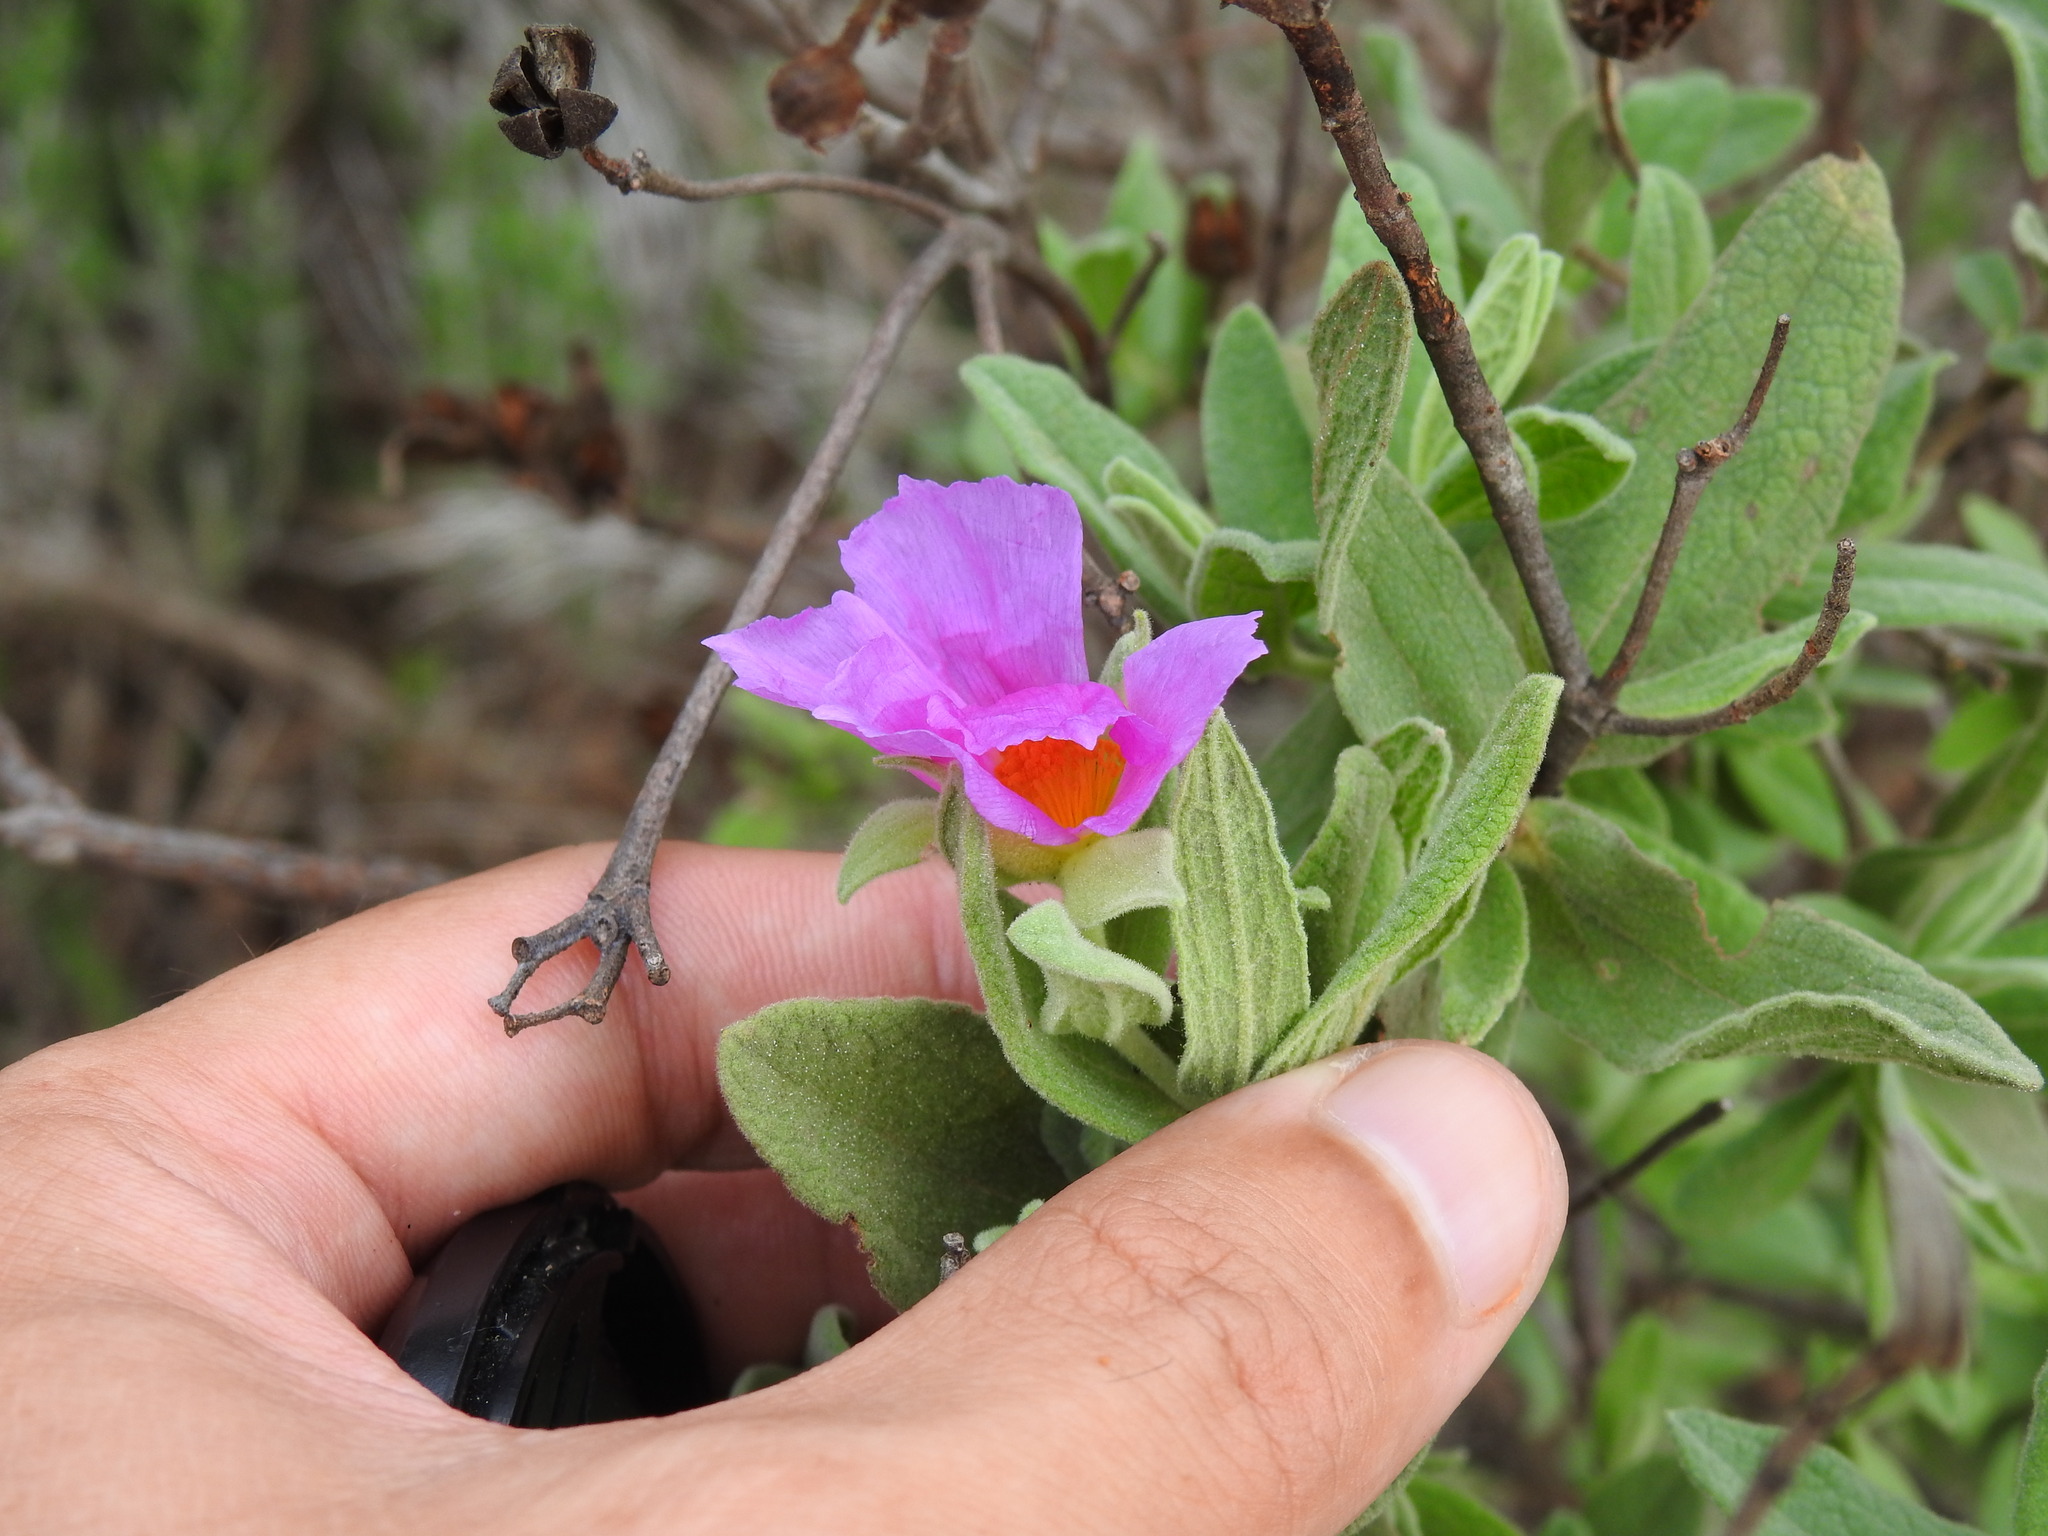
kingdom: Plantae
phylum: Tracheophyta
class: Magnoliopsida
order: Malvales
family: Cistaceae
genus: Cistus
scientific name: Cistus albidus
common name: White-leaf rock-rose
